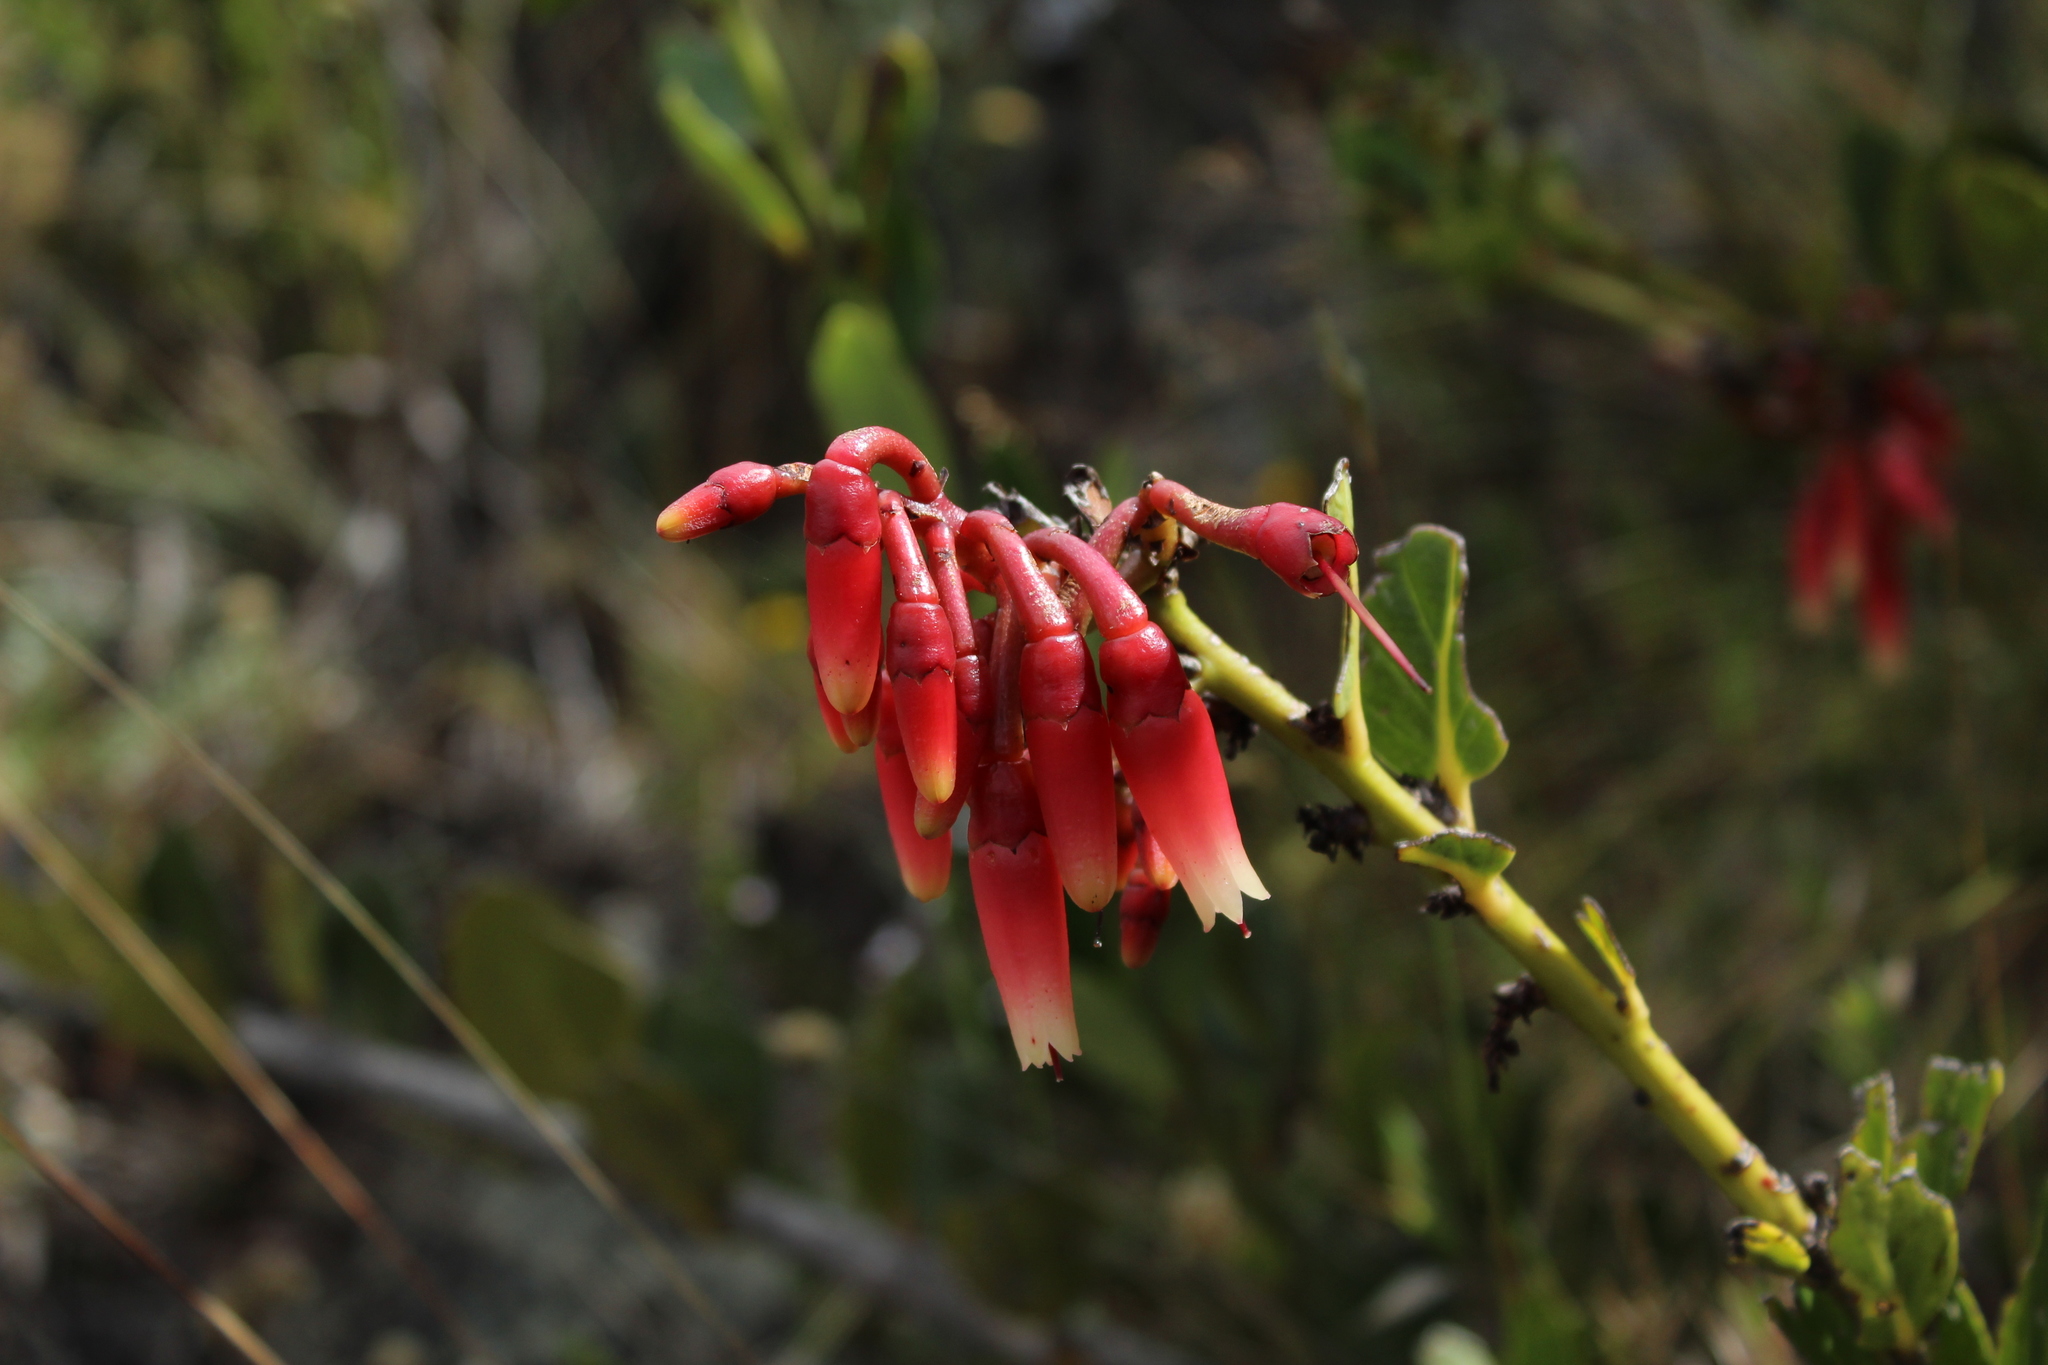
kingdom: Plantae
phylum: Tracheophyta
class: Magnoliopsida
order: Ericales
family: Ericaceae
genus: Macleania
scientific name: Macleania rupestris
